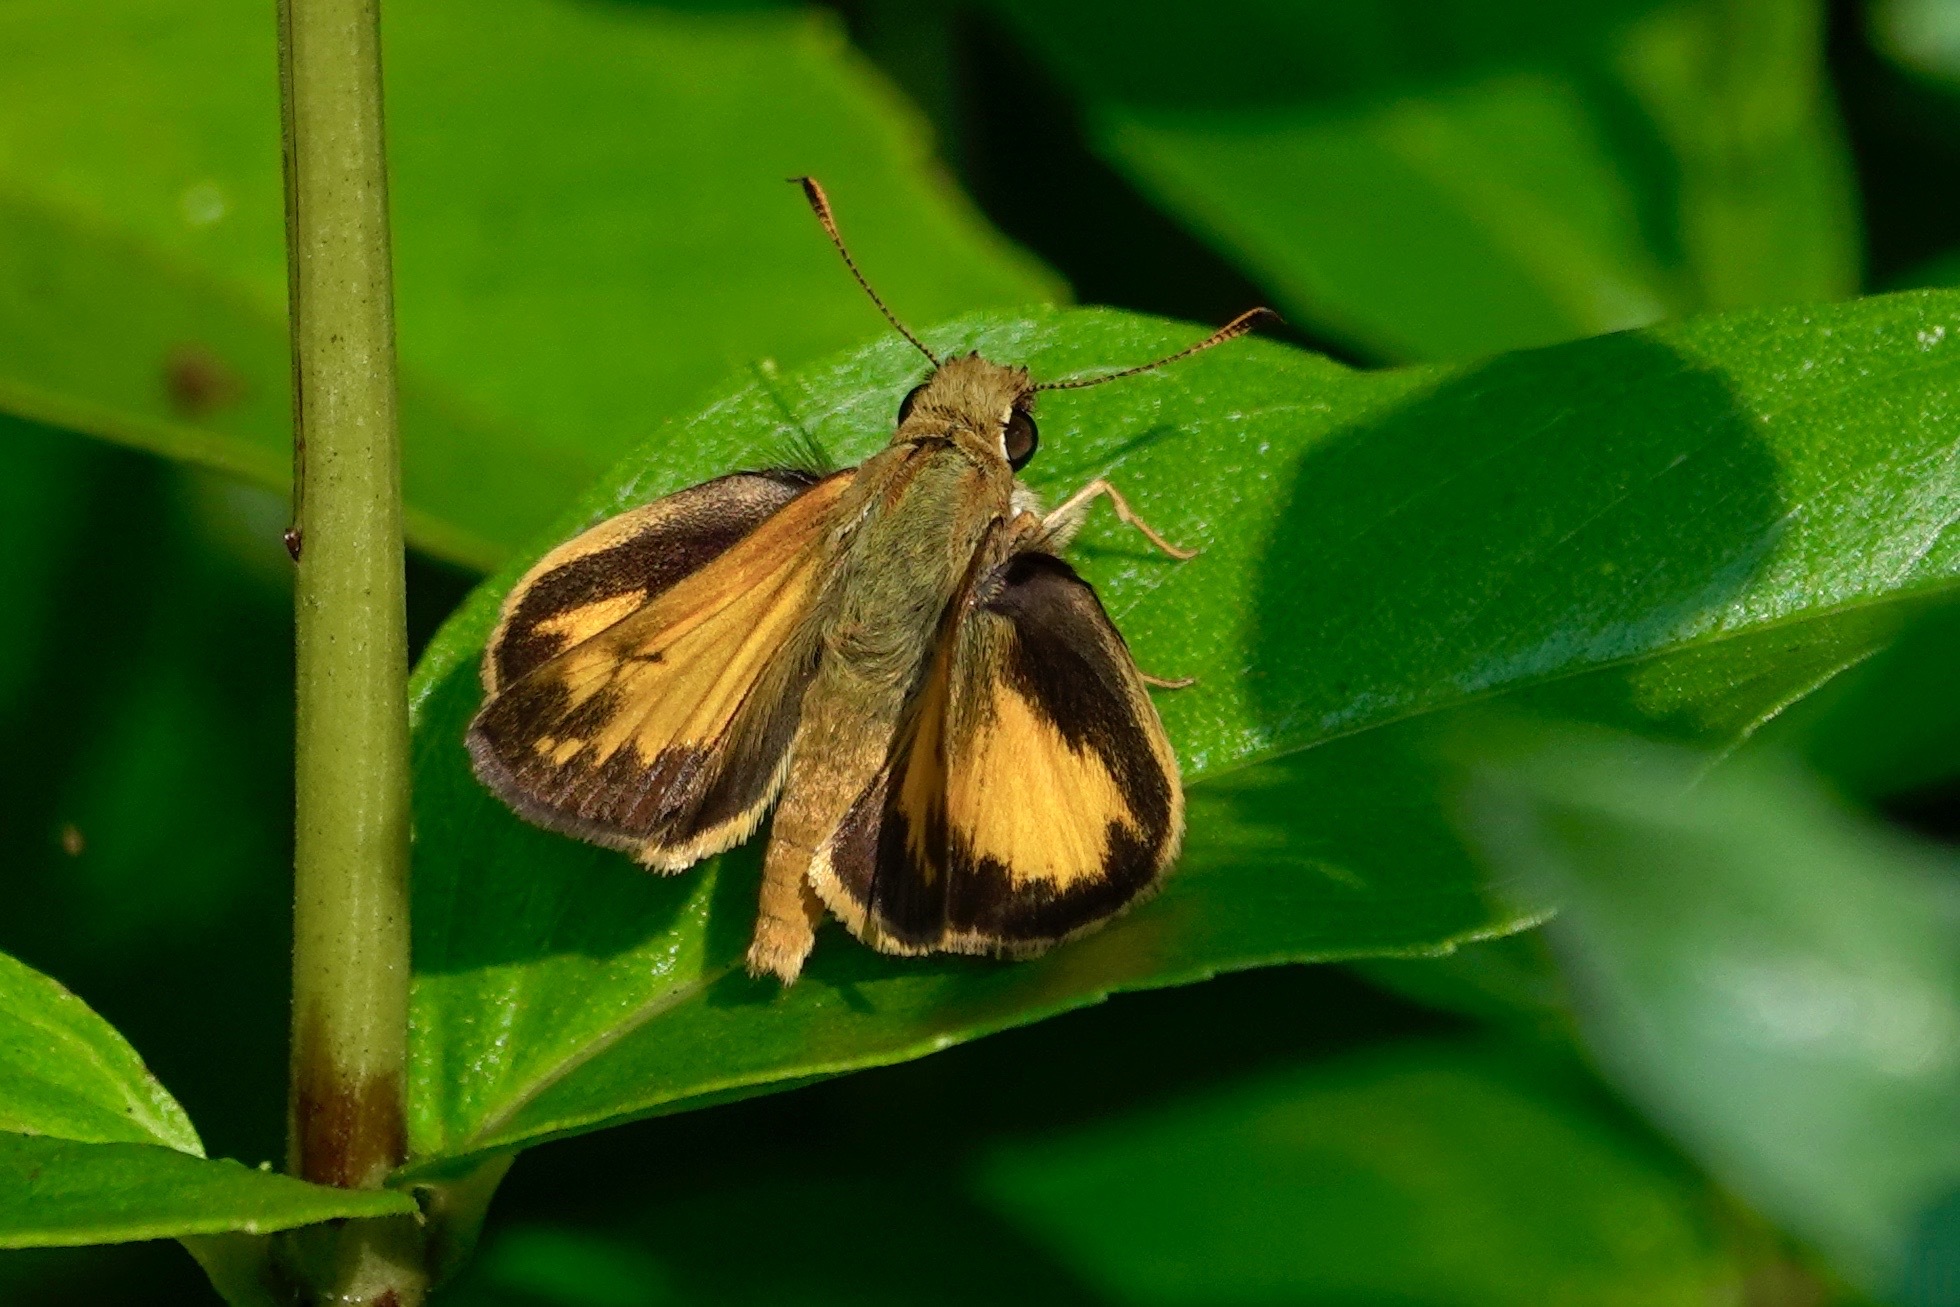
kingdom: Animalia
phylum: Arthropoda
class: Insecta
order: Lepidoptera
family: Hesperiidae
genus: Lon
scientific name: Lon zabulon
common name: Zabulon skipper
